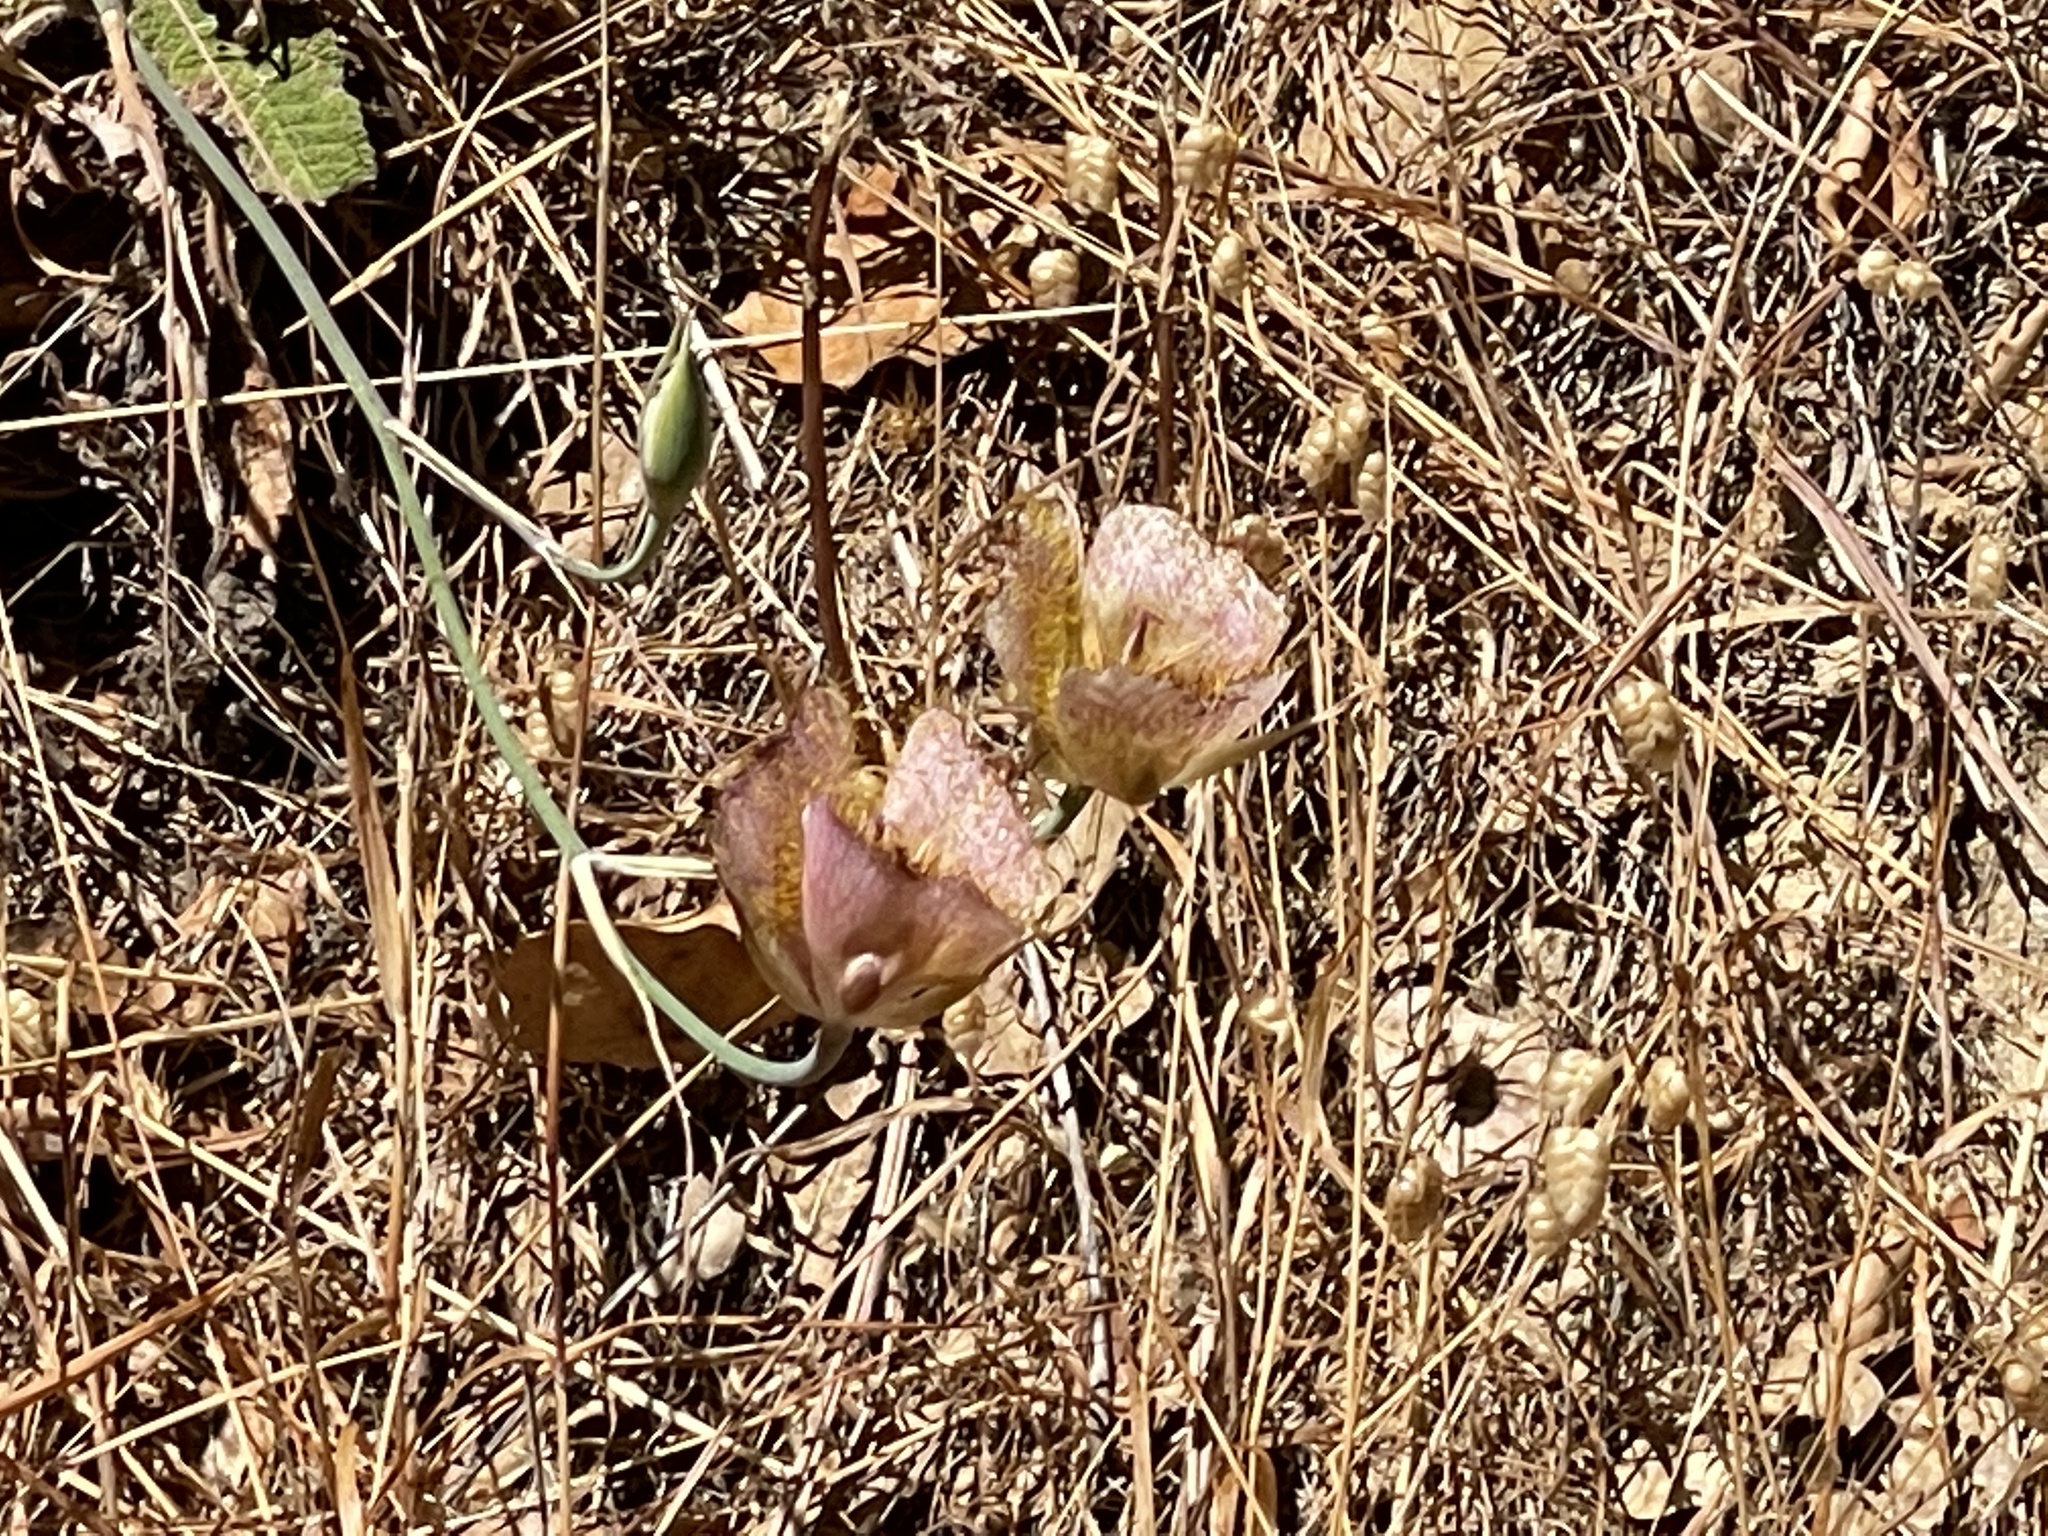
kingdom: Plantae
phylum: Tracheophyta
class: Liliopsida
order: Liliales
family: Liliaceae
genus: Calochortus
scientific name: Calochortus fimbriatus
